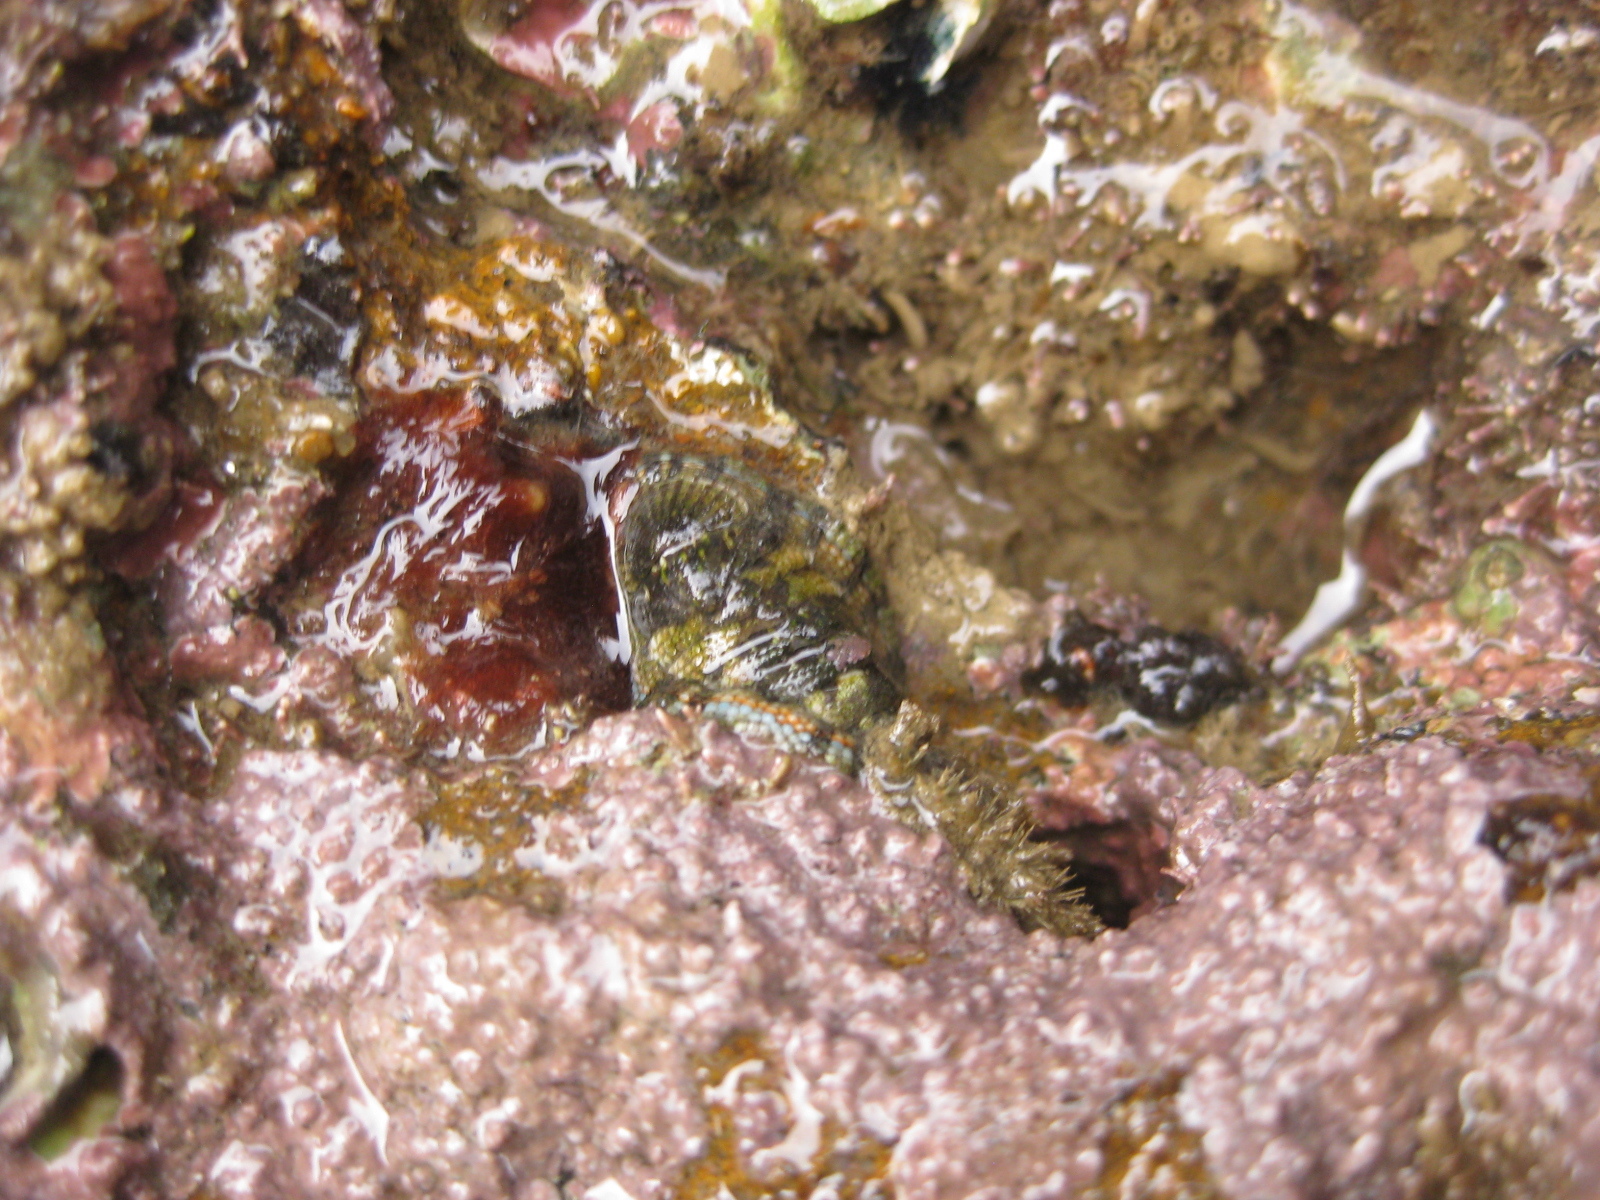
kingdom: Animalia
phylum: Mollusca
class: Polyplacophora
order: Chitonida
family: Chitonidae
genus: Sypharochiton
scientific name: Sypharochiton sinclairi
